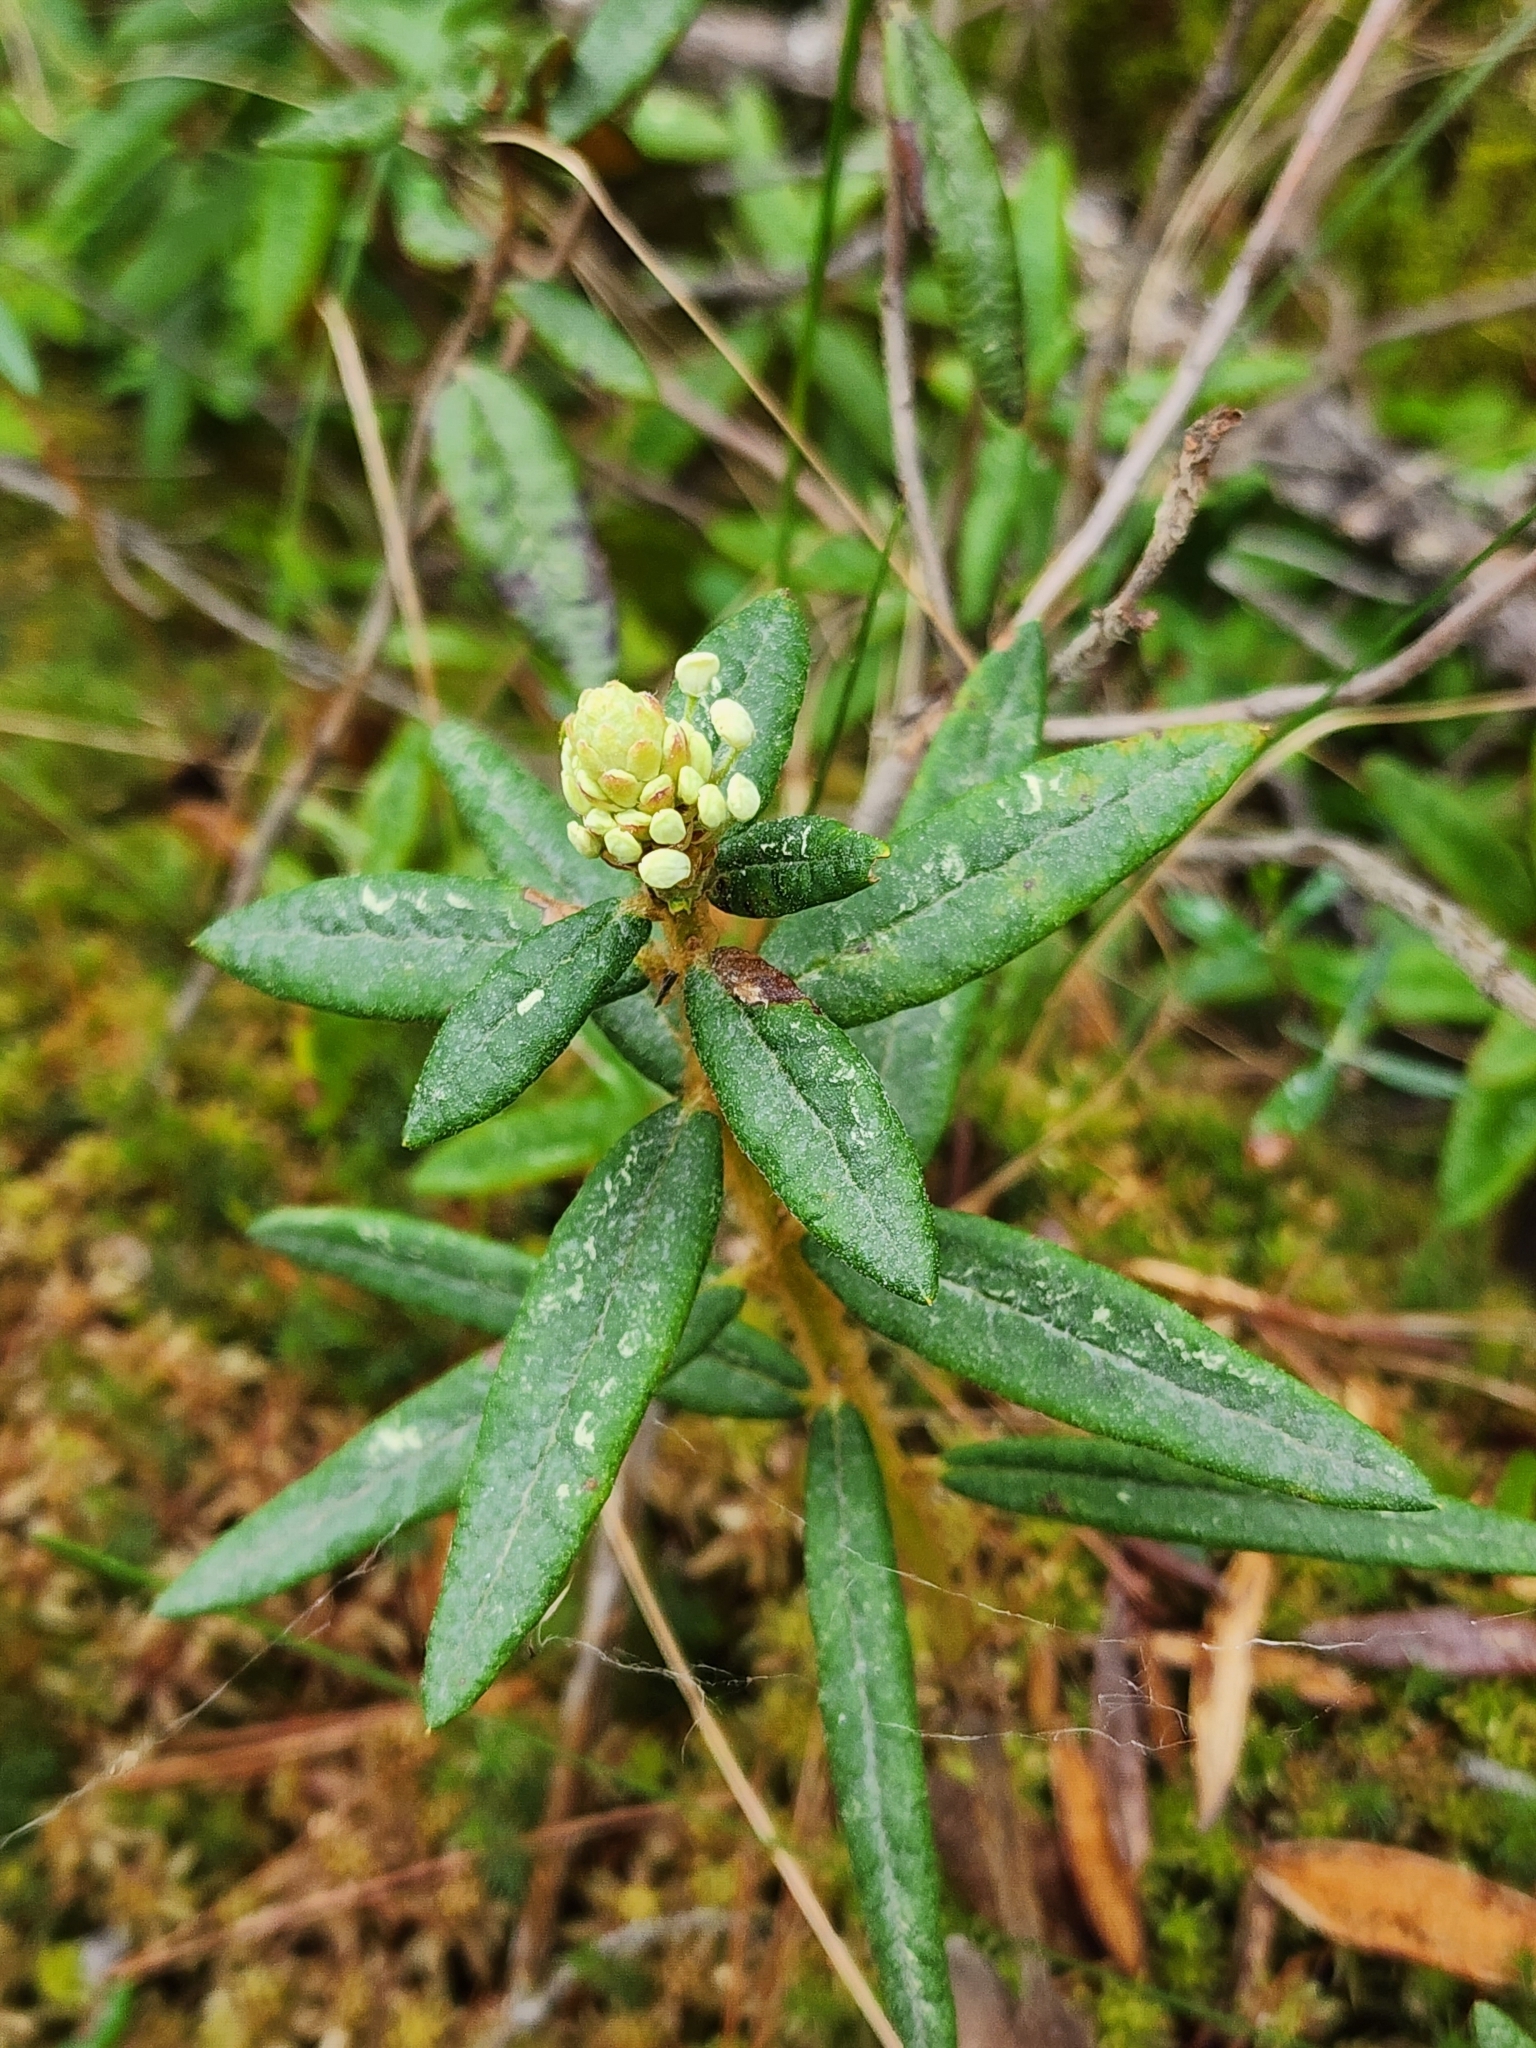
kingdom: Plantae
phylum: Tracheophyta
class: Magnoliopsida
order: Ericales
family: Ericaceae
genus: Rhododendron
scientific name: Rhododendron groenlandicum
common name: Bog labrador tea
